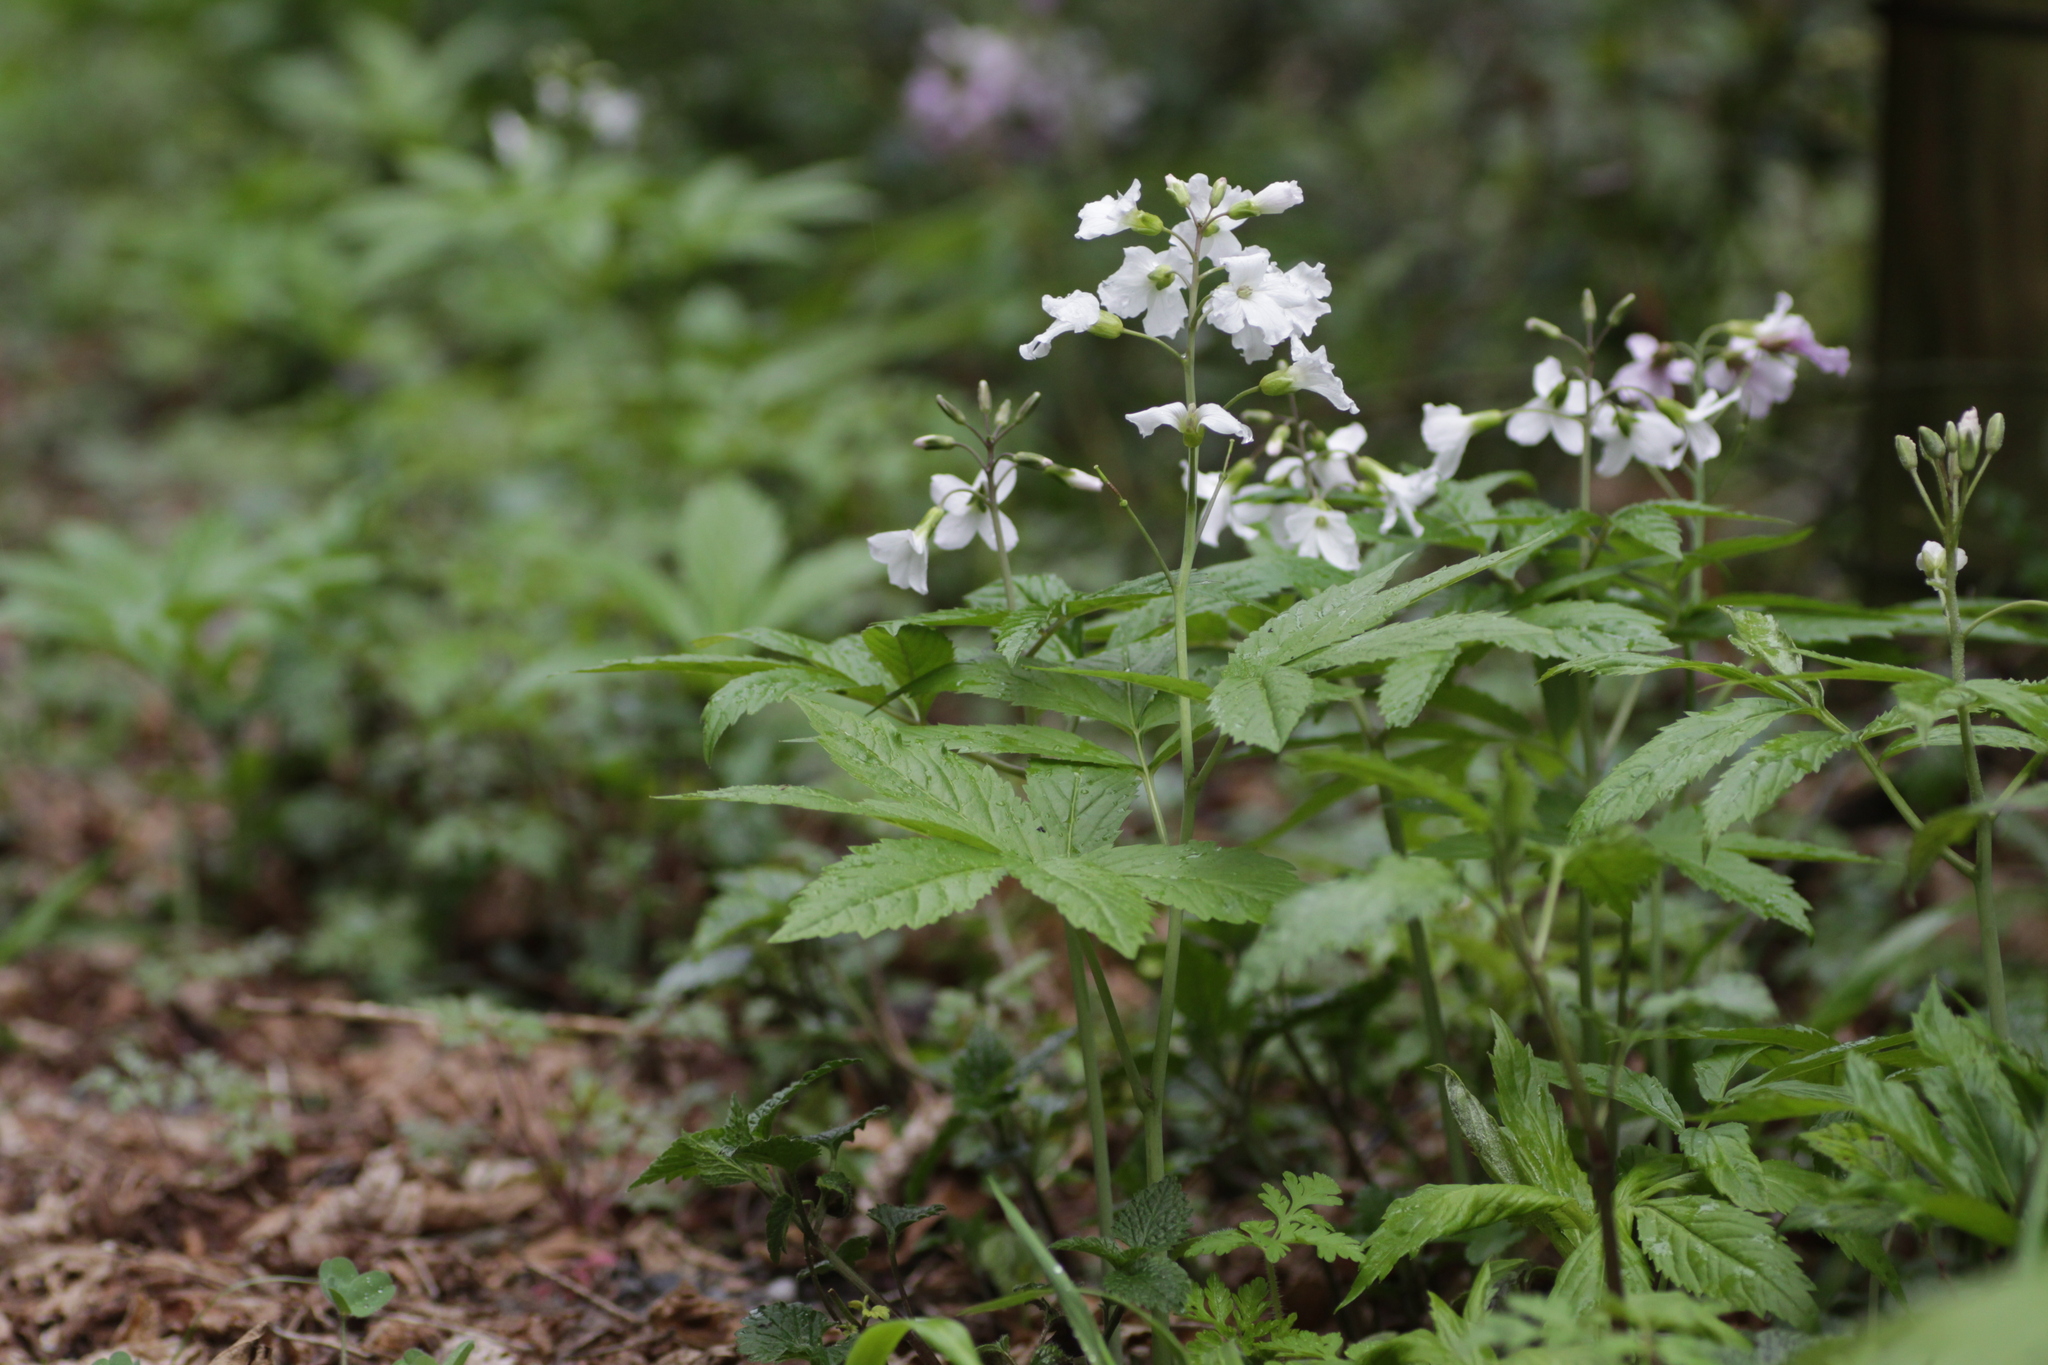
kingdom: Plantae
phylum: Tracheophyta
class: Magnoliopsida
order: Brassicales
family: Brassicaceae
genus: Cardamine
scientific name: Cardamine heptaphylla
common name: Pinnate coralroot
